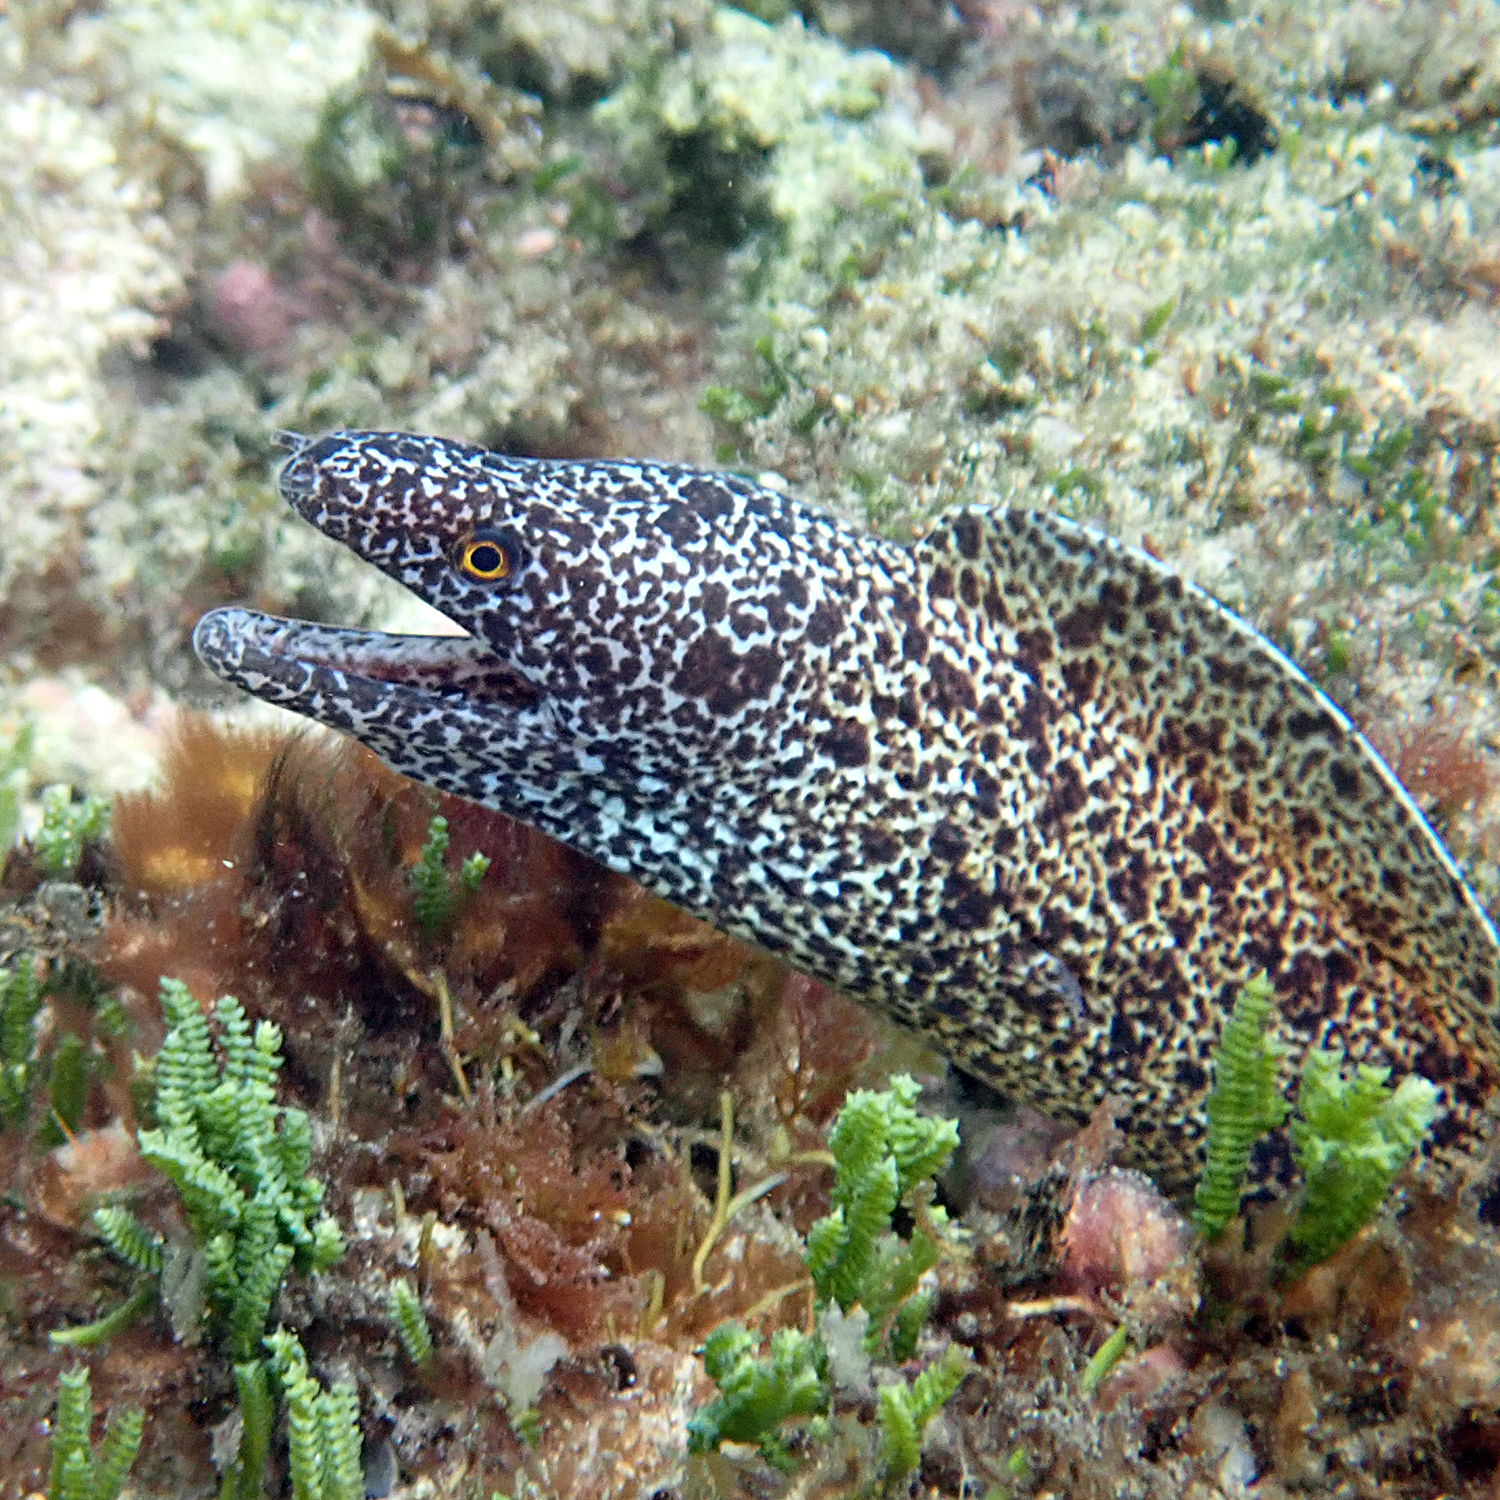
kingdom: Animalia
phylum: Chordata
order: Anguilliformes
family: Muraenidae
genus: Gymnothorax
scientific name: Gymnothorax annasona
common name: Lord howe island moray
